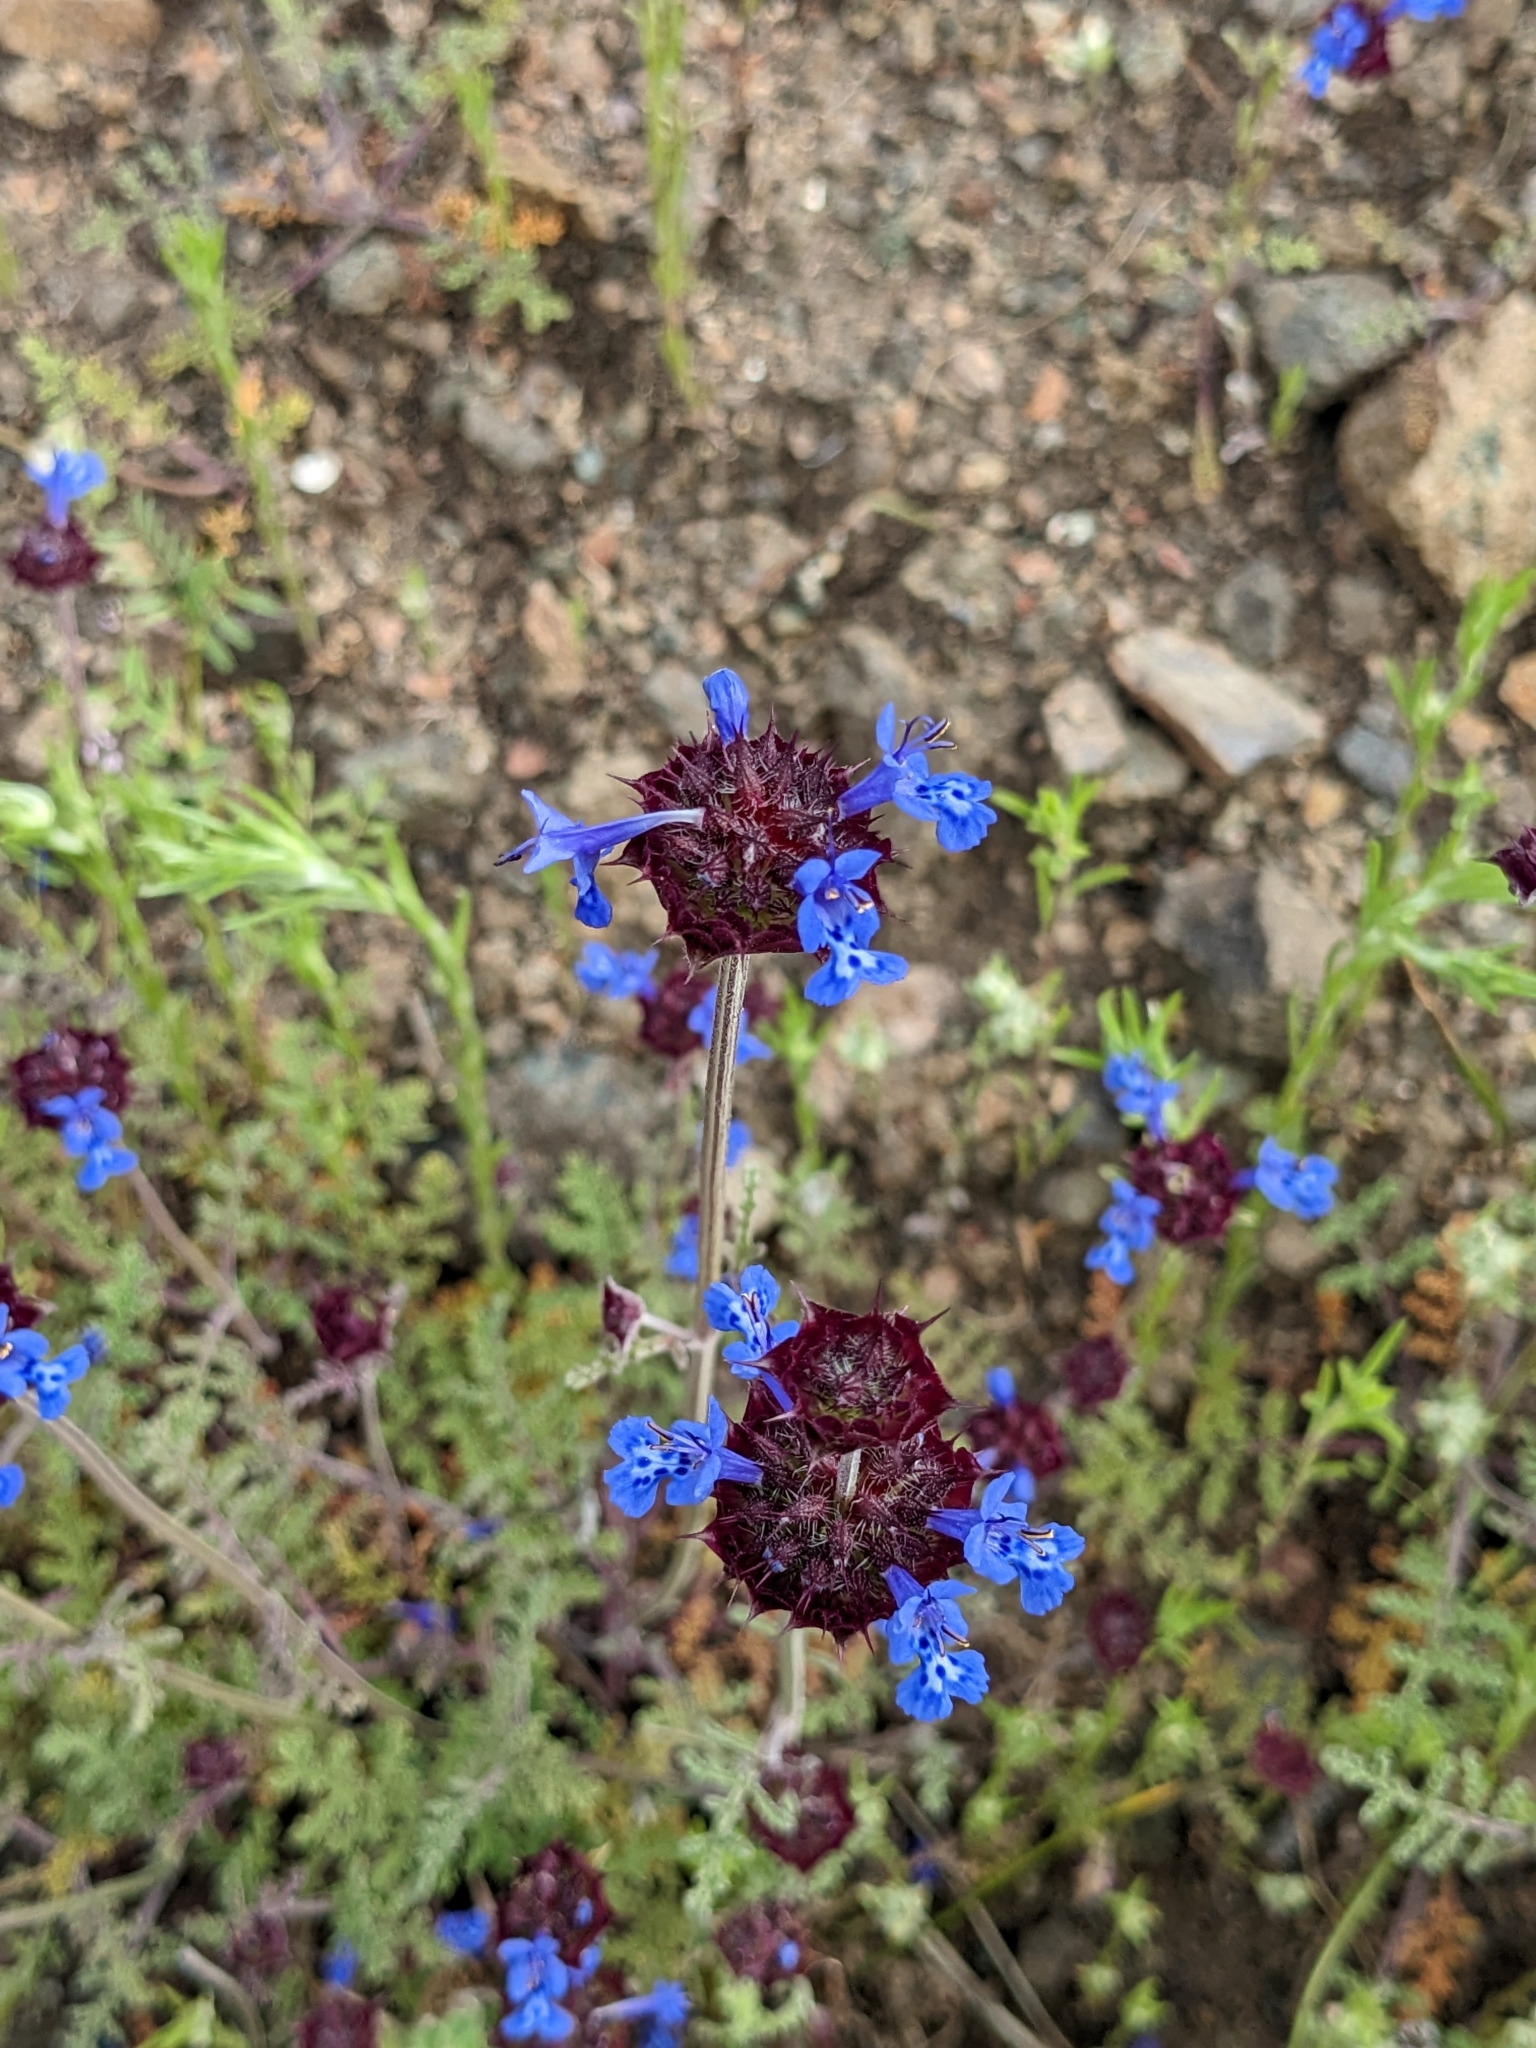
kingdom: Plantae
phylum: Tracheophyta
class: Magnoliopsida
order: Lamiales
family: Lamiaceae
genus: Salvia
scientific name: Salvia columbariae
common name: Chia
